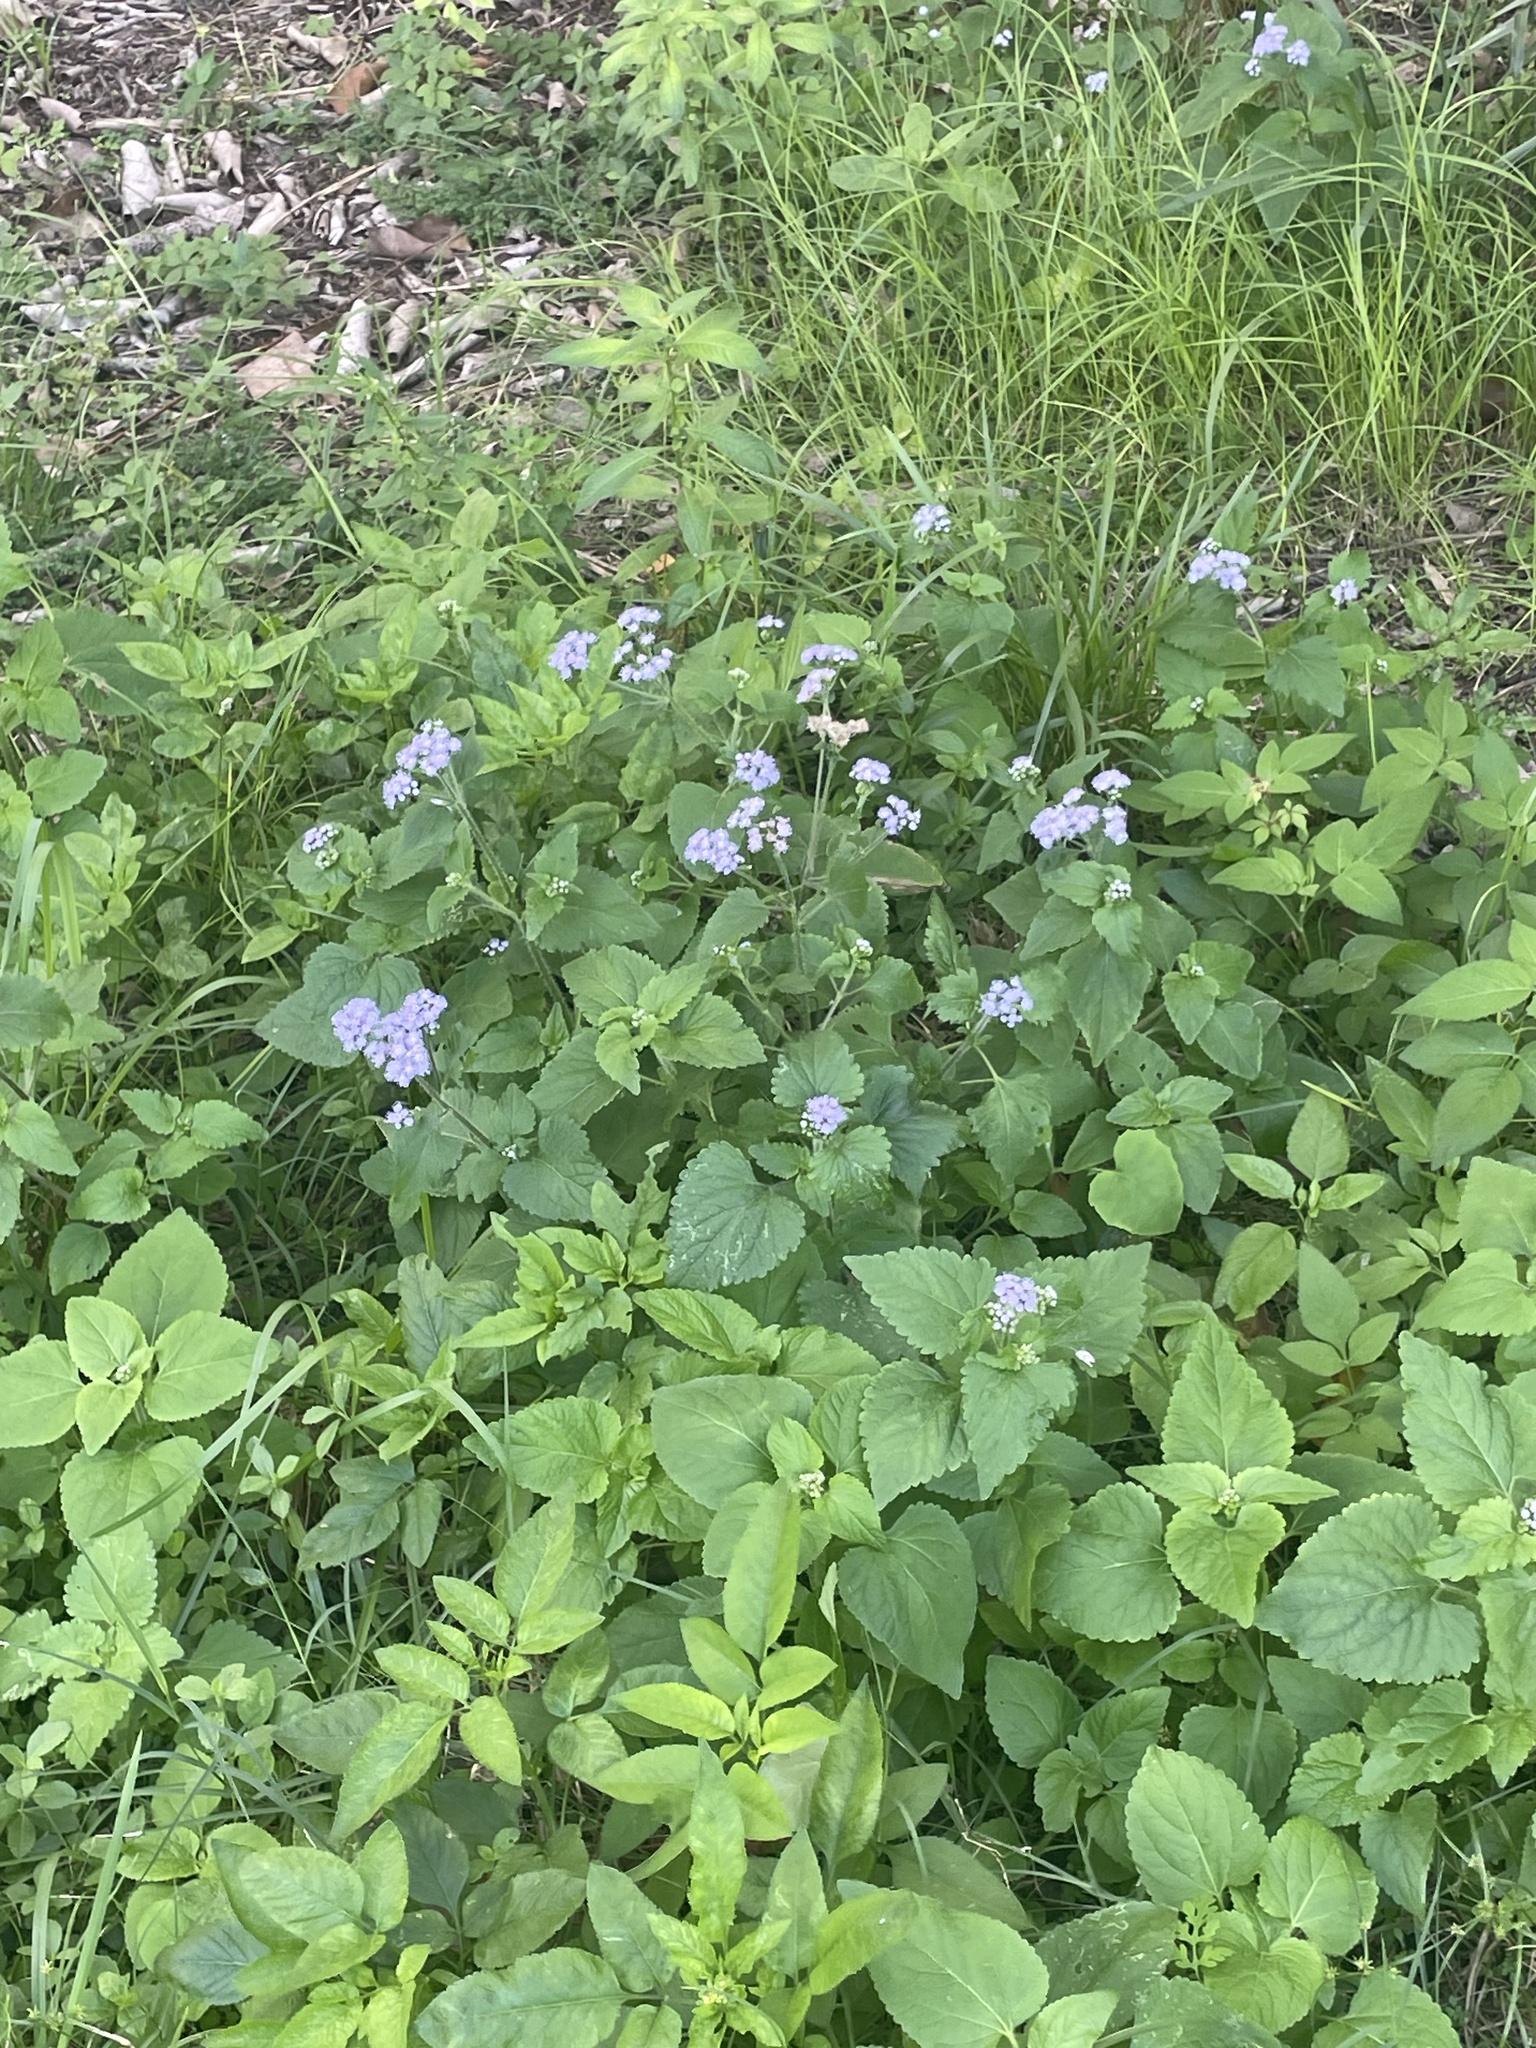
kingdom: Plantae
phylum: Tracheophyta
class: Magnoliopsida
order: Asterales
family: Asteraceae
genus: Ageratum
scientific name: Ageratum houstonianum
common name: Bluemink
